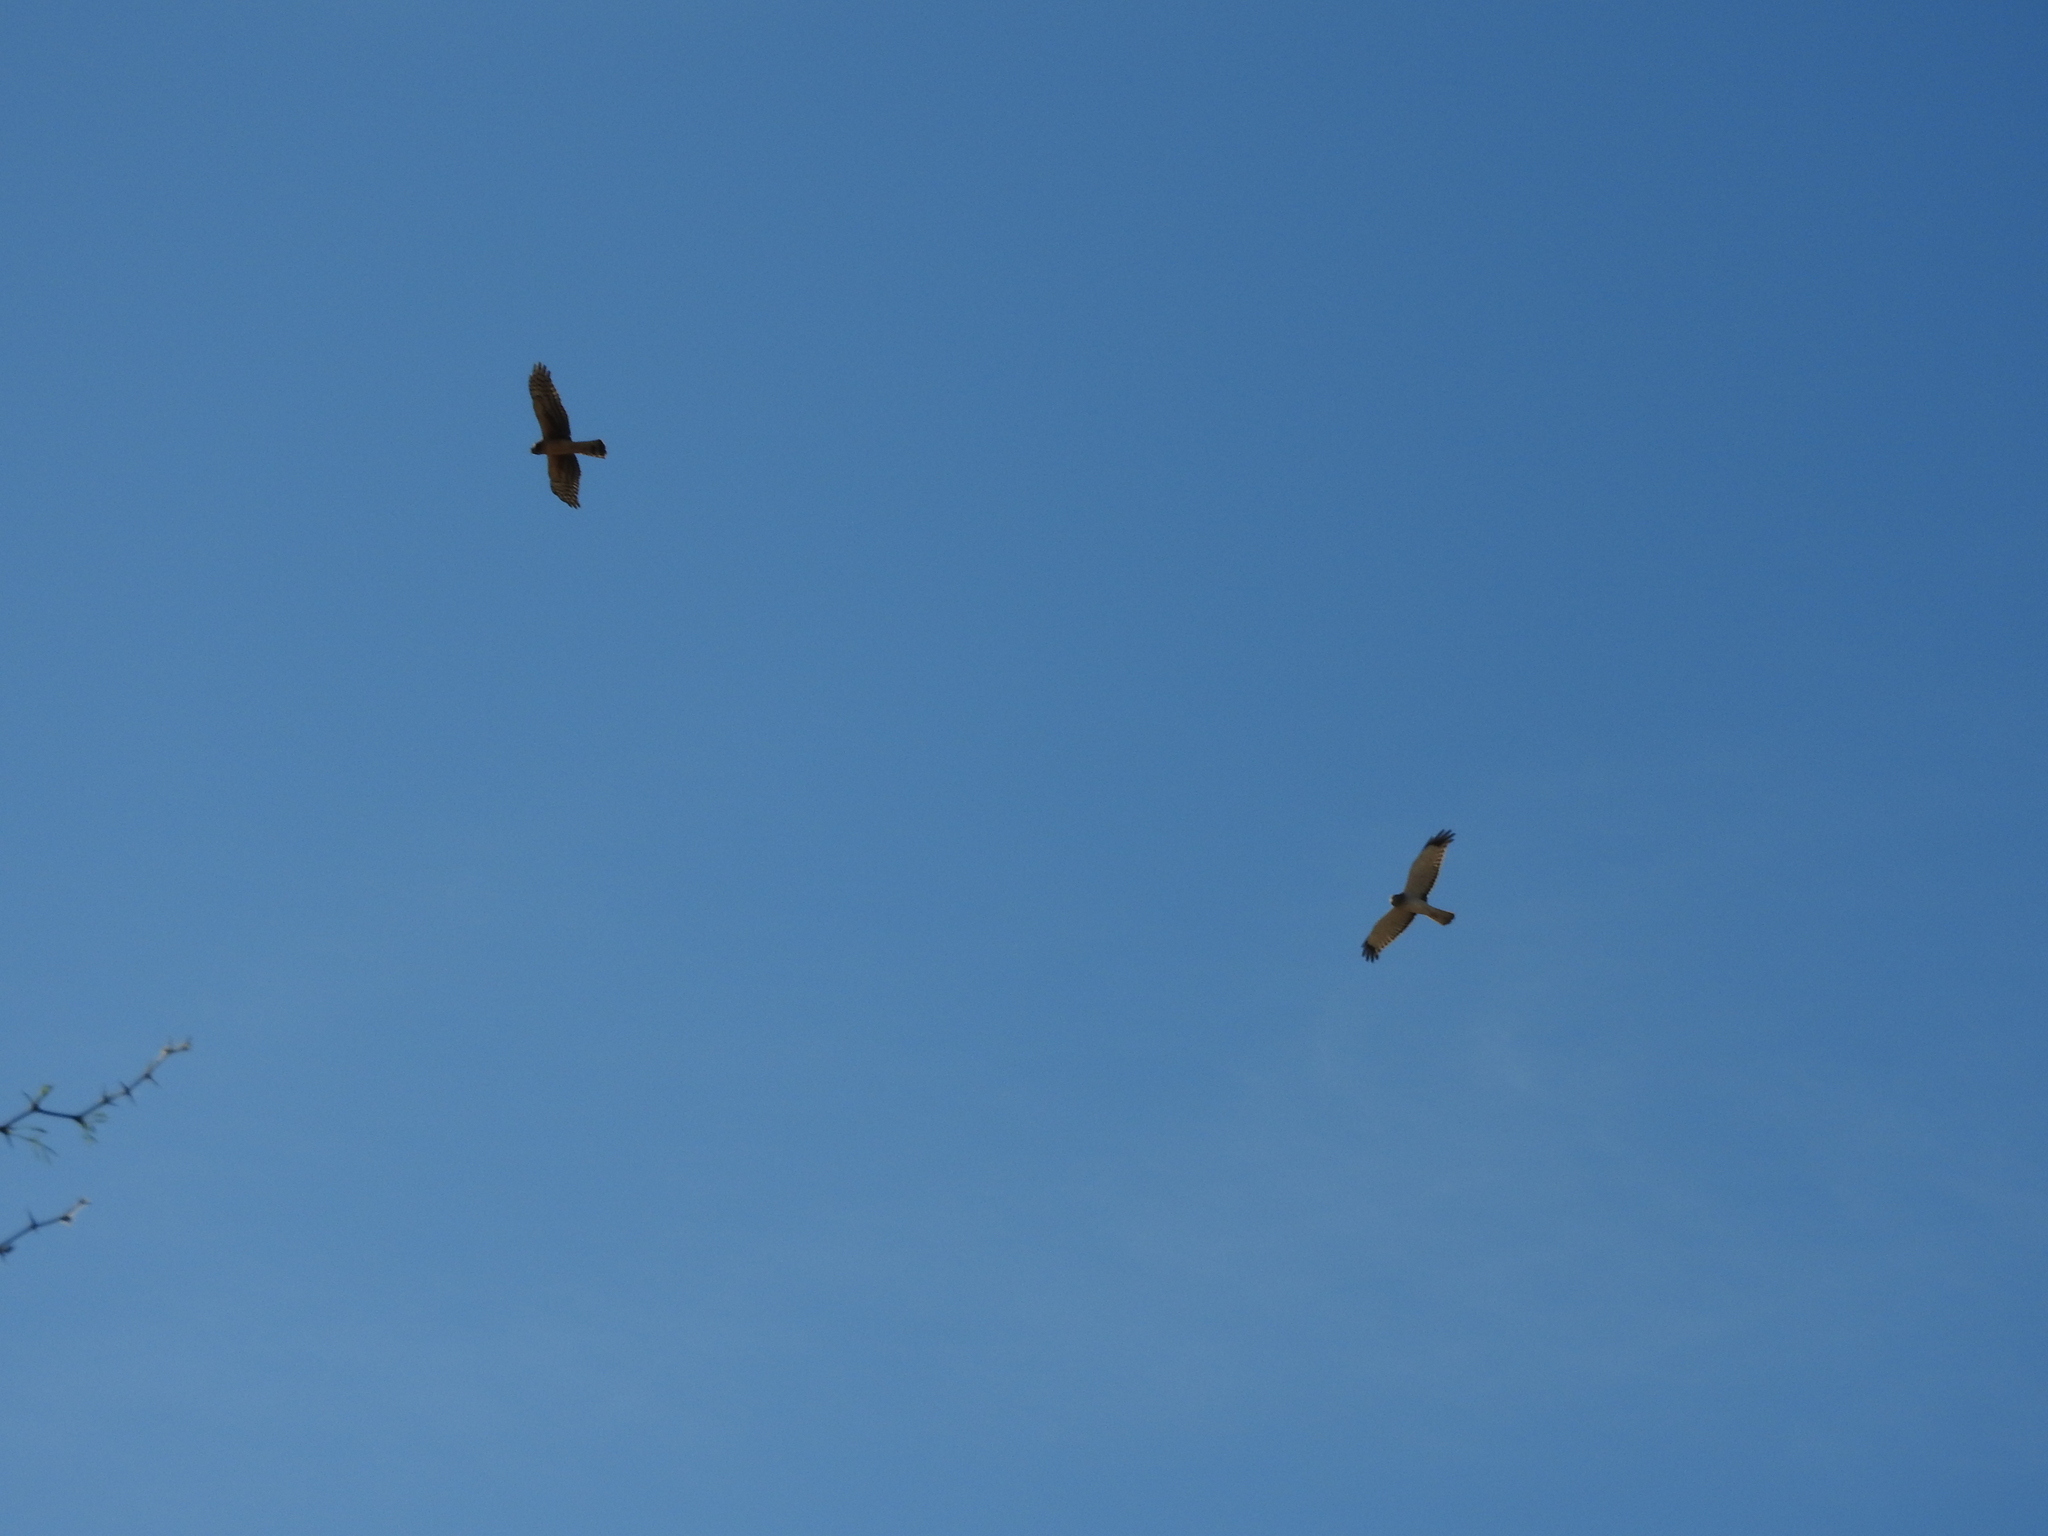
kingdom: Animalia
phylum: Chordata
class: Aves
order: Accipitriformes
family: Accipitridae
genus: Circus
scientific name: Circus cyaneus
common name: Hen harrier
